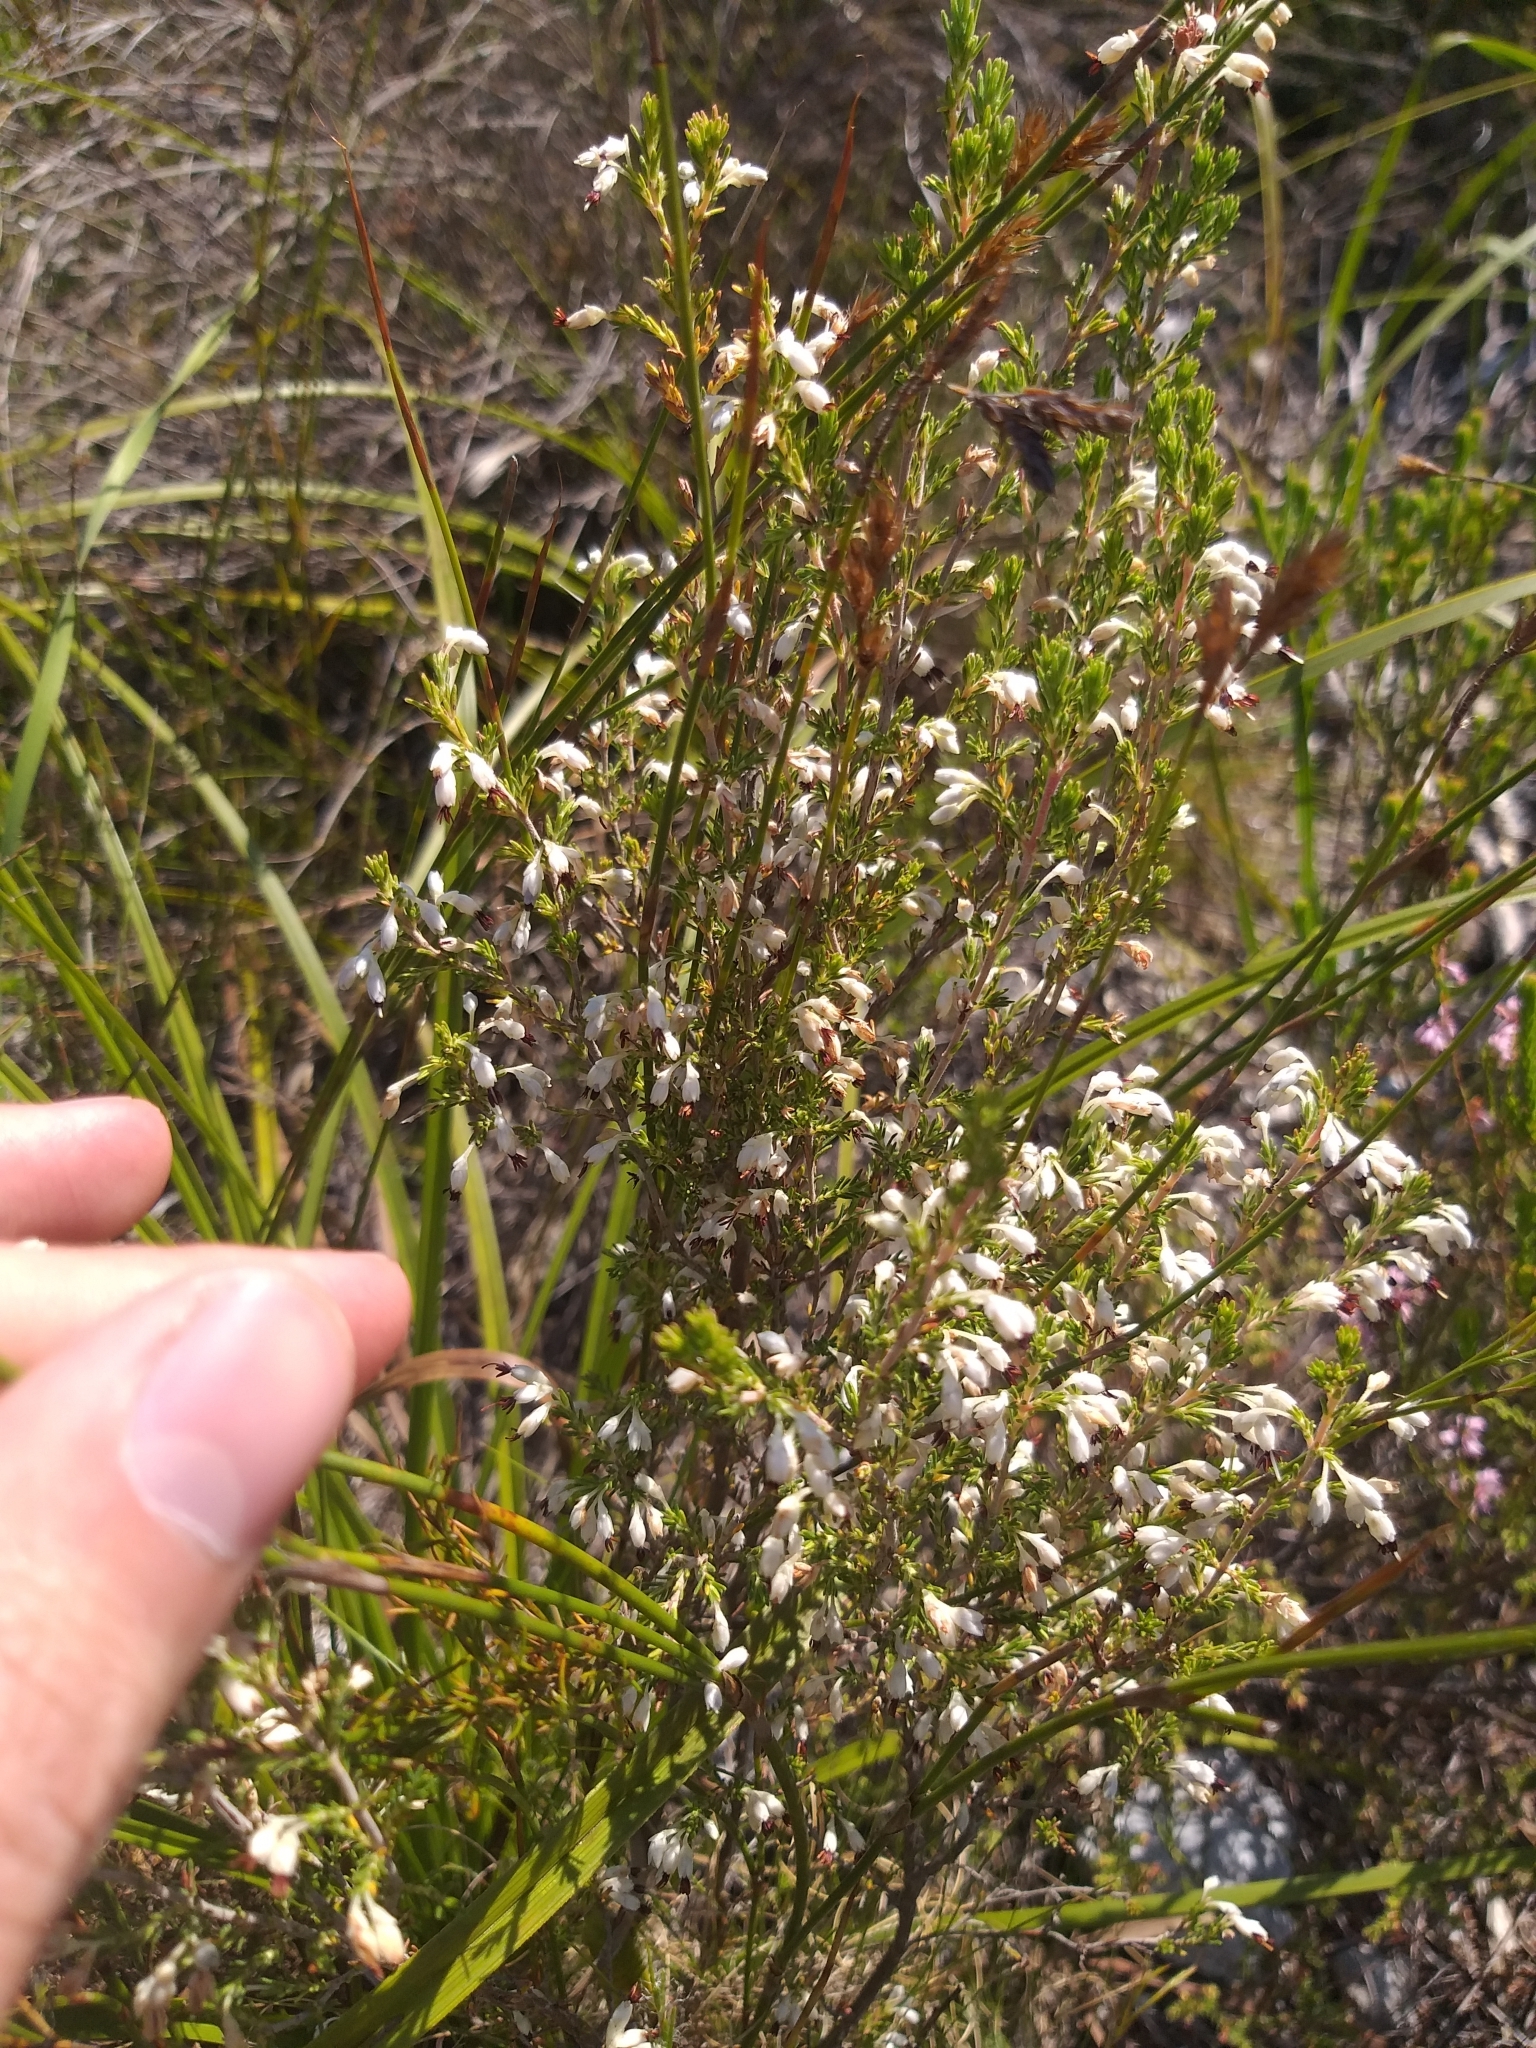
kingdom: Plantae
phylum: Tracheophyta
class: Magnoliopsida
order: Ericales
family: Ericaceae
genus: Erica
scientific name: Erica imbricata
